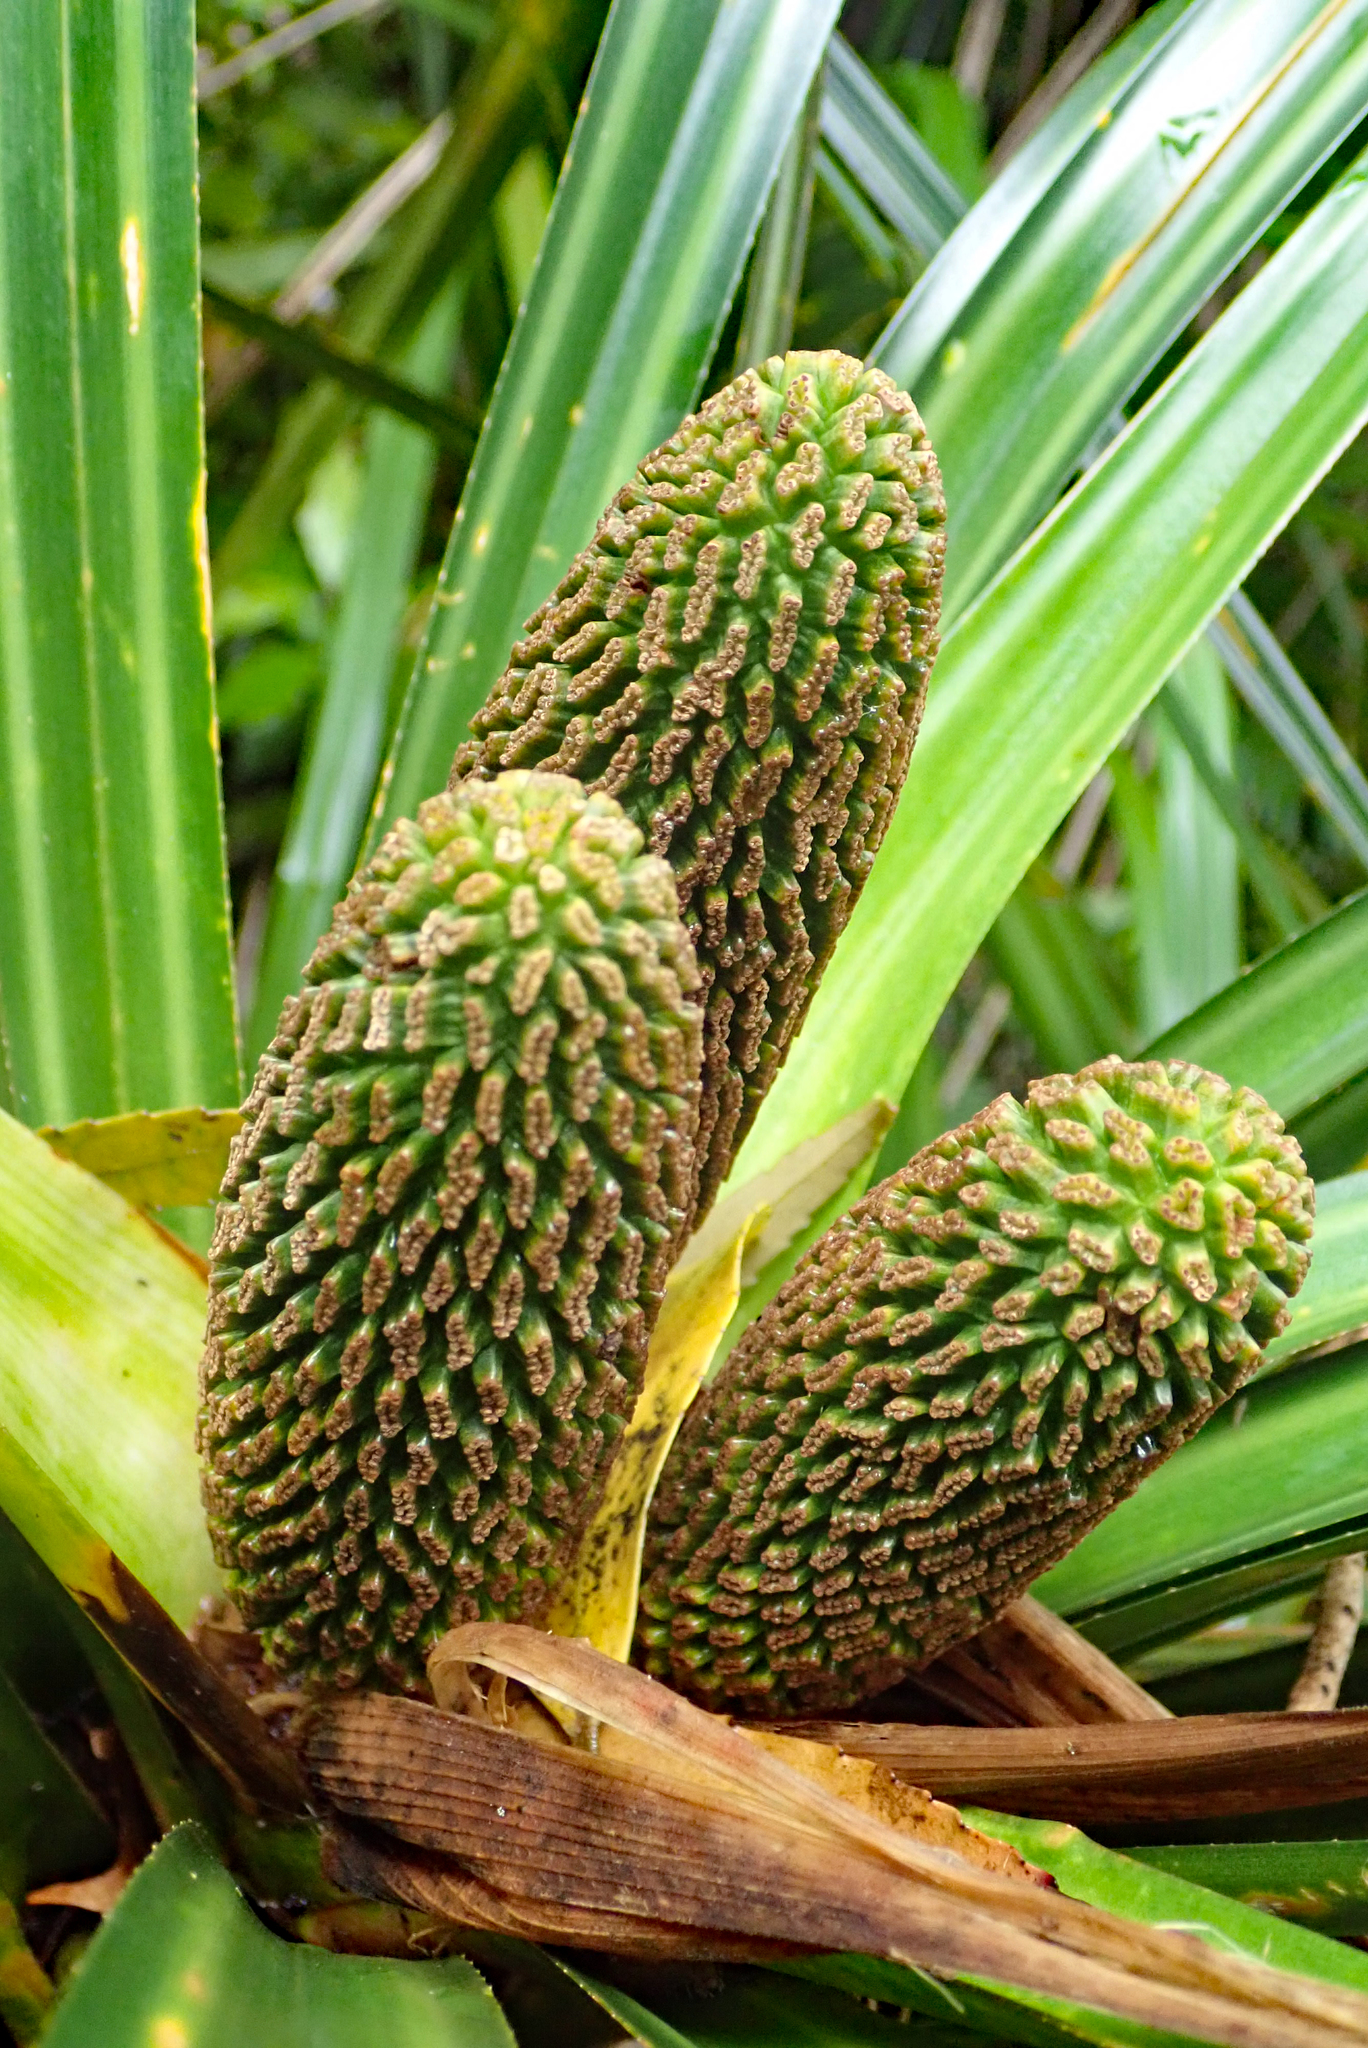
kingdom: Plantae
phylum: Tracheophyta
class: Liliopsida
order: Pandanales
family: Pandanaceae
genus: Freycinetia
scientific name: Freycinetia banksii
